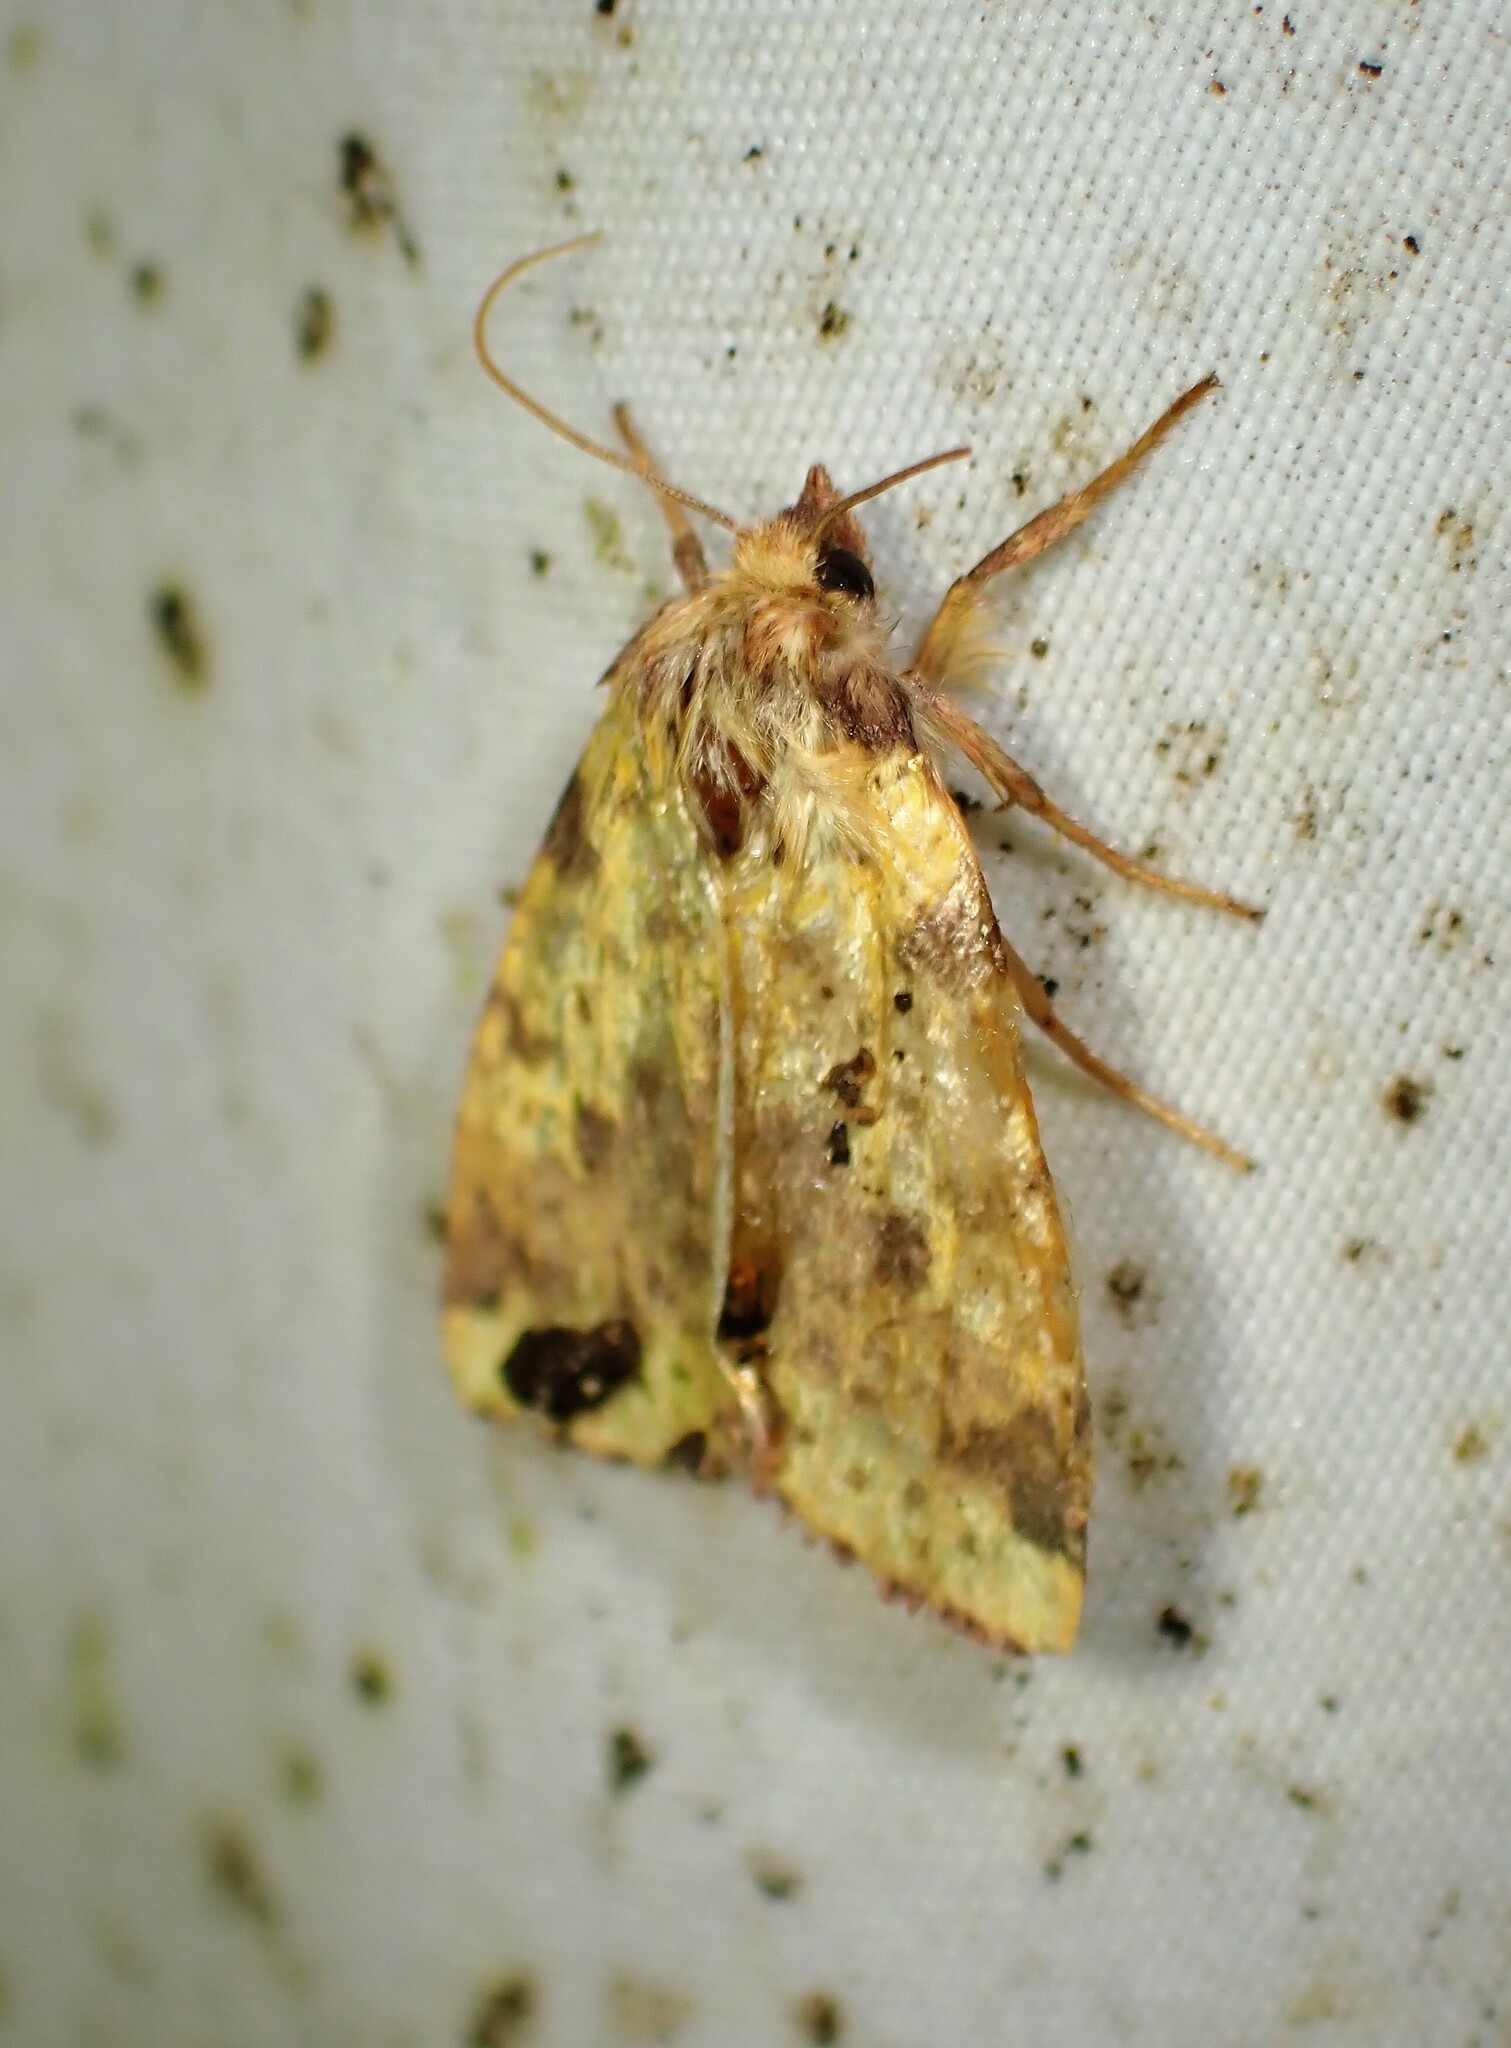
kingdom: Animalia
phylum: Arthropoda
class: Insecta
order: Lepidoptera
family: Noctuidae
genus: Xanthia
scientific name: Xanthia tatago
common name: Pink-banded sallow
